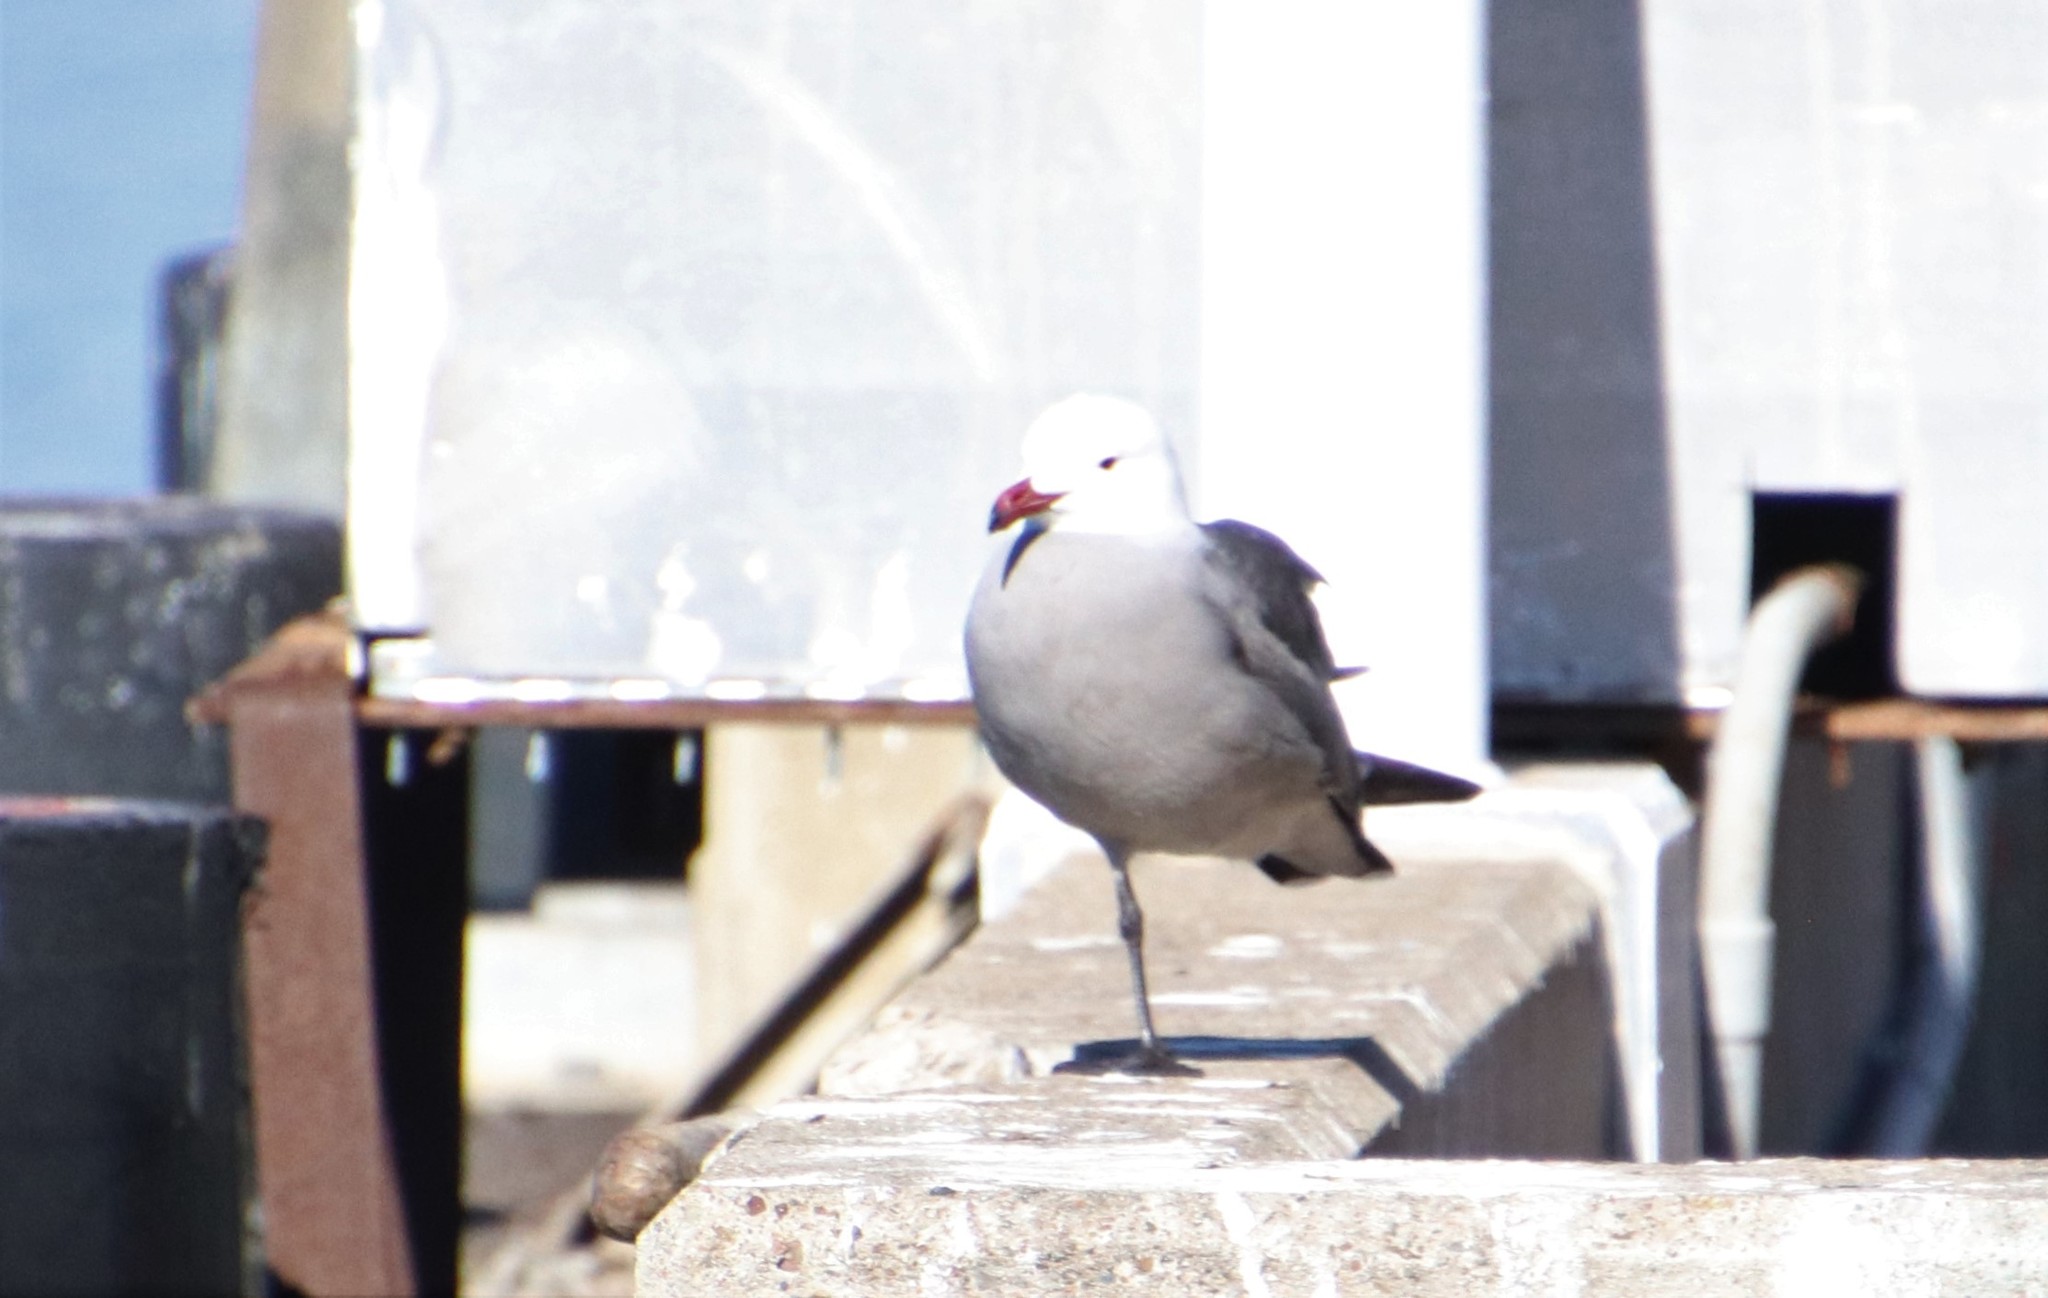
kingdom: Animalia
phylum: Chordata
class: Aves
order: Charadriiformes
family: Laridae
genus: Larus
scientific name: Larus heermanni
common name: Heermann's gull
